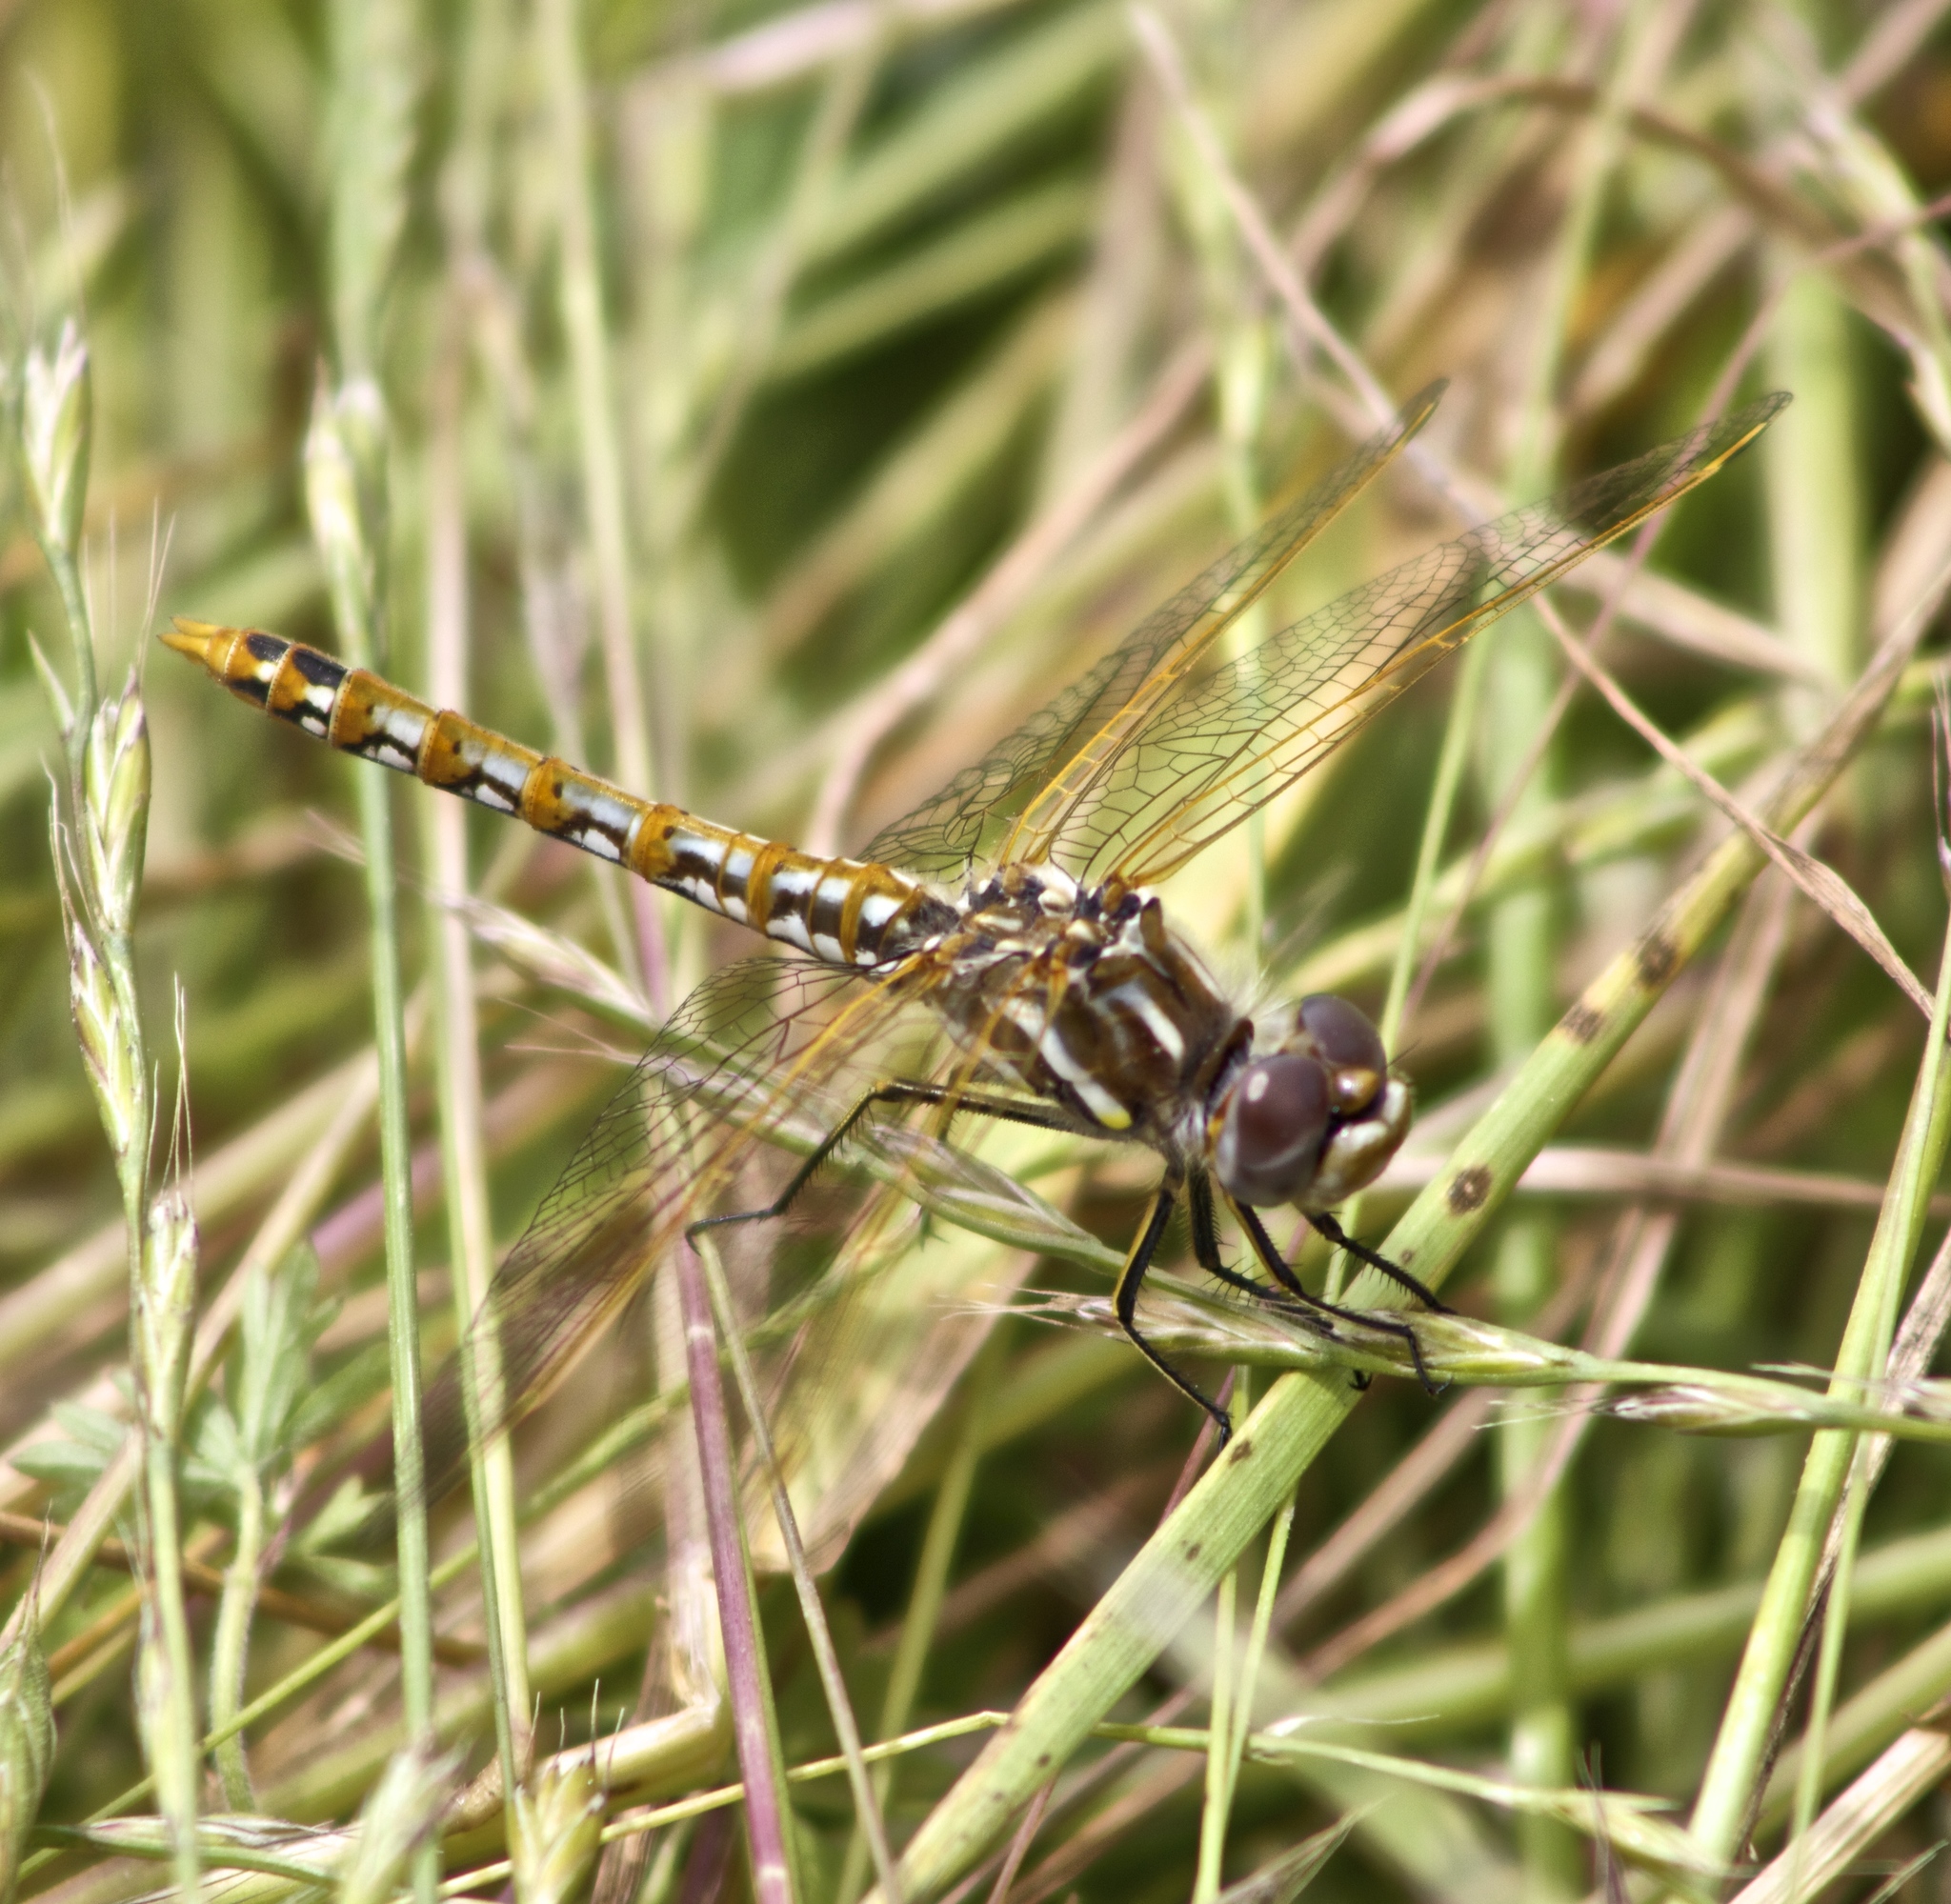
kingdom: Animalia
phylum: Arthropoda
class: Insecta
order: Odonata
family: Libellulidae
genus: Sympetrum
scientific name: Sympetrum corruptum
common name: Variegated meadowhawk
